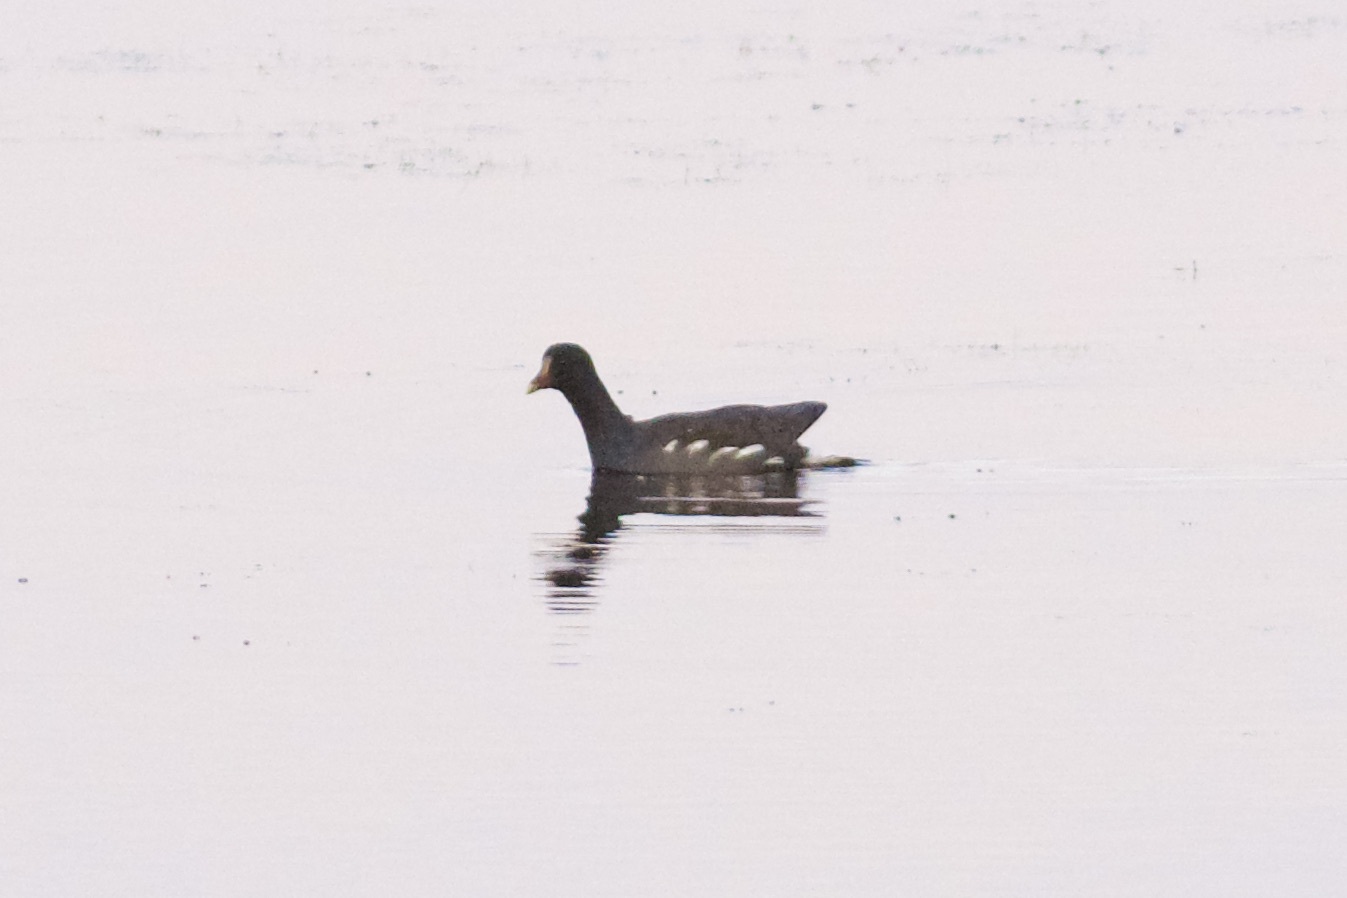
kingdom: Animalia
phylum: Chordata
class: Aves
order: Gruiformes
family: Rallidae
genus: Gallinula
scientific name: Gallinula chloropus
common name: Common moorhen
